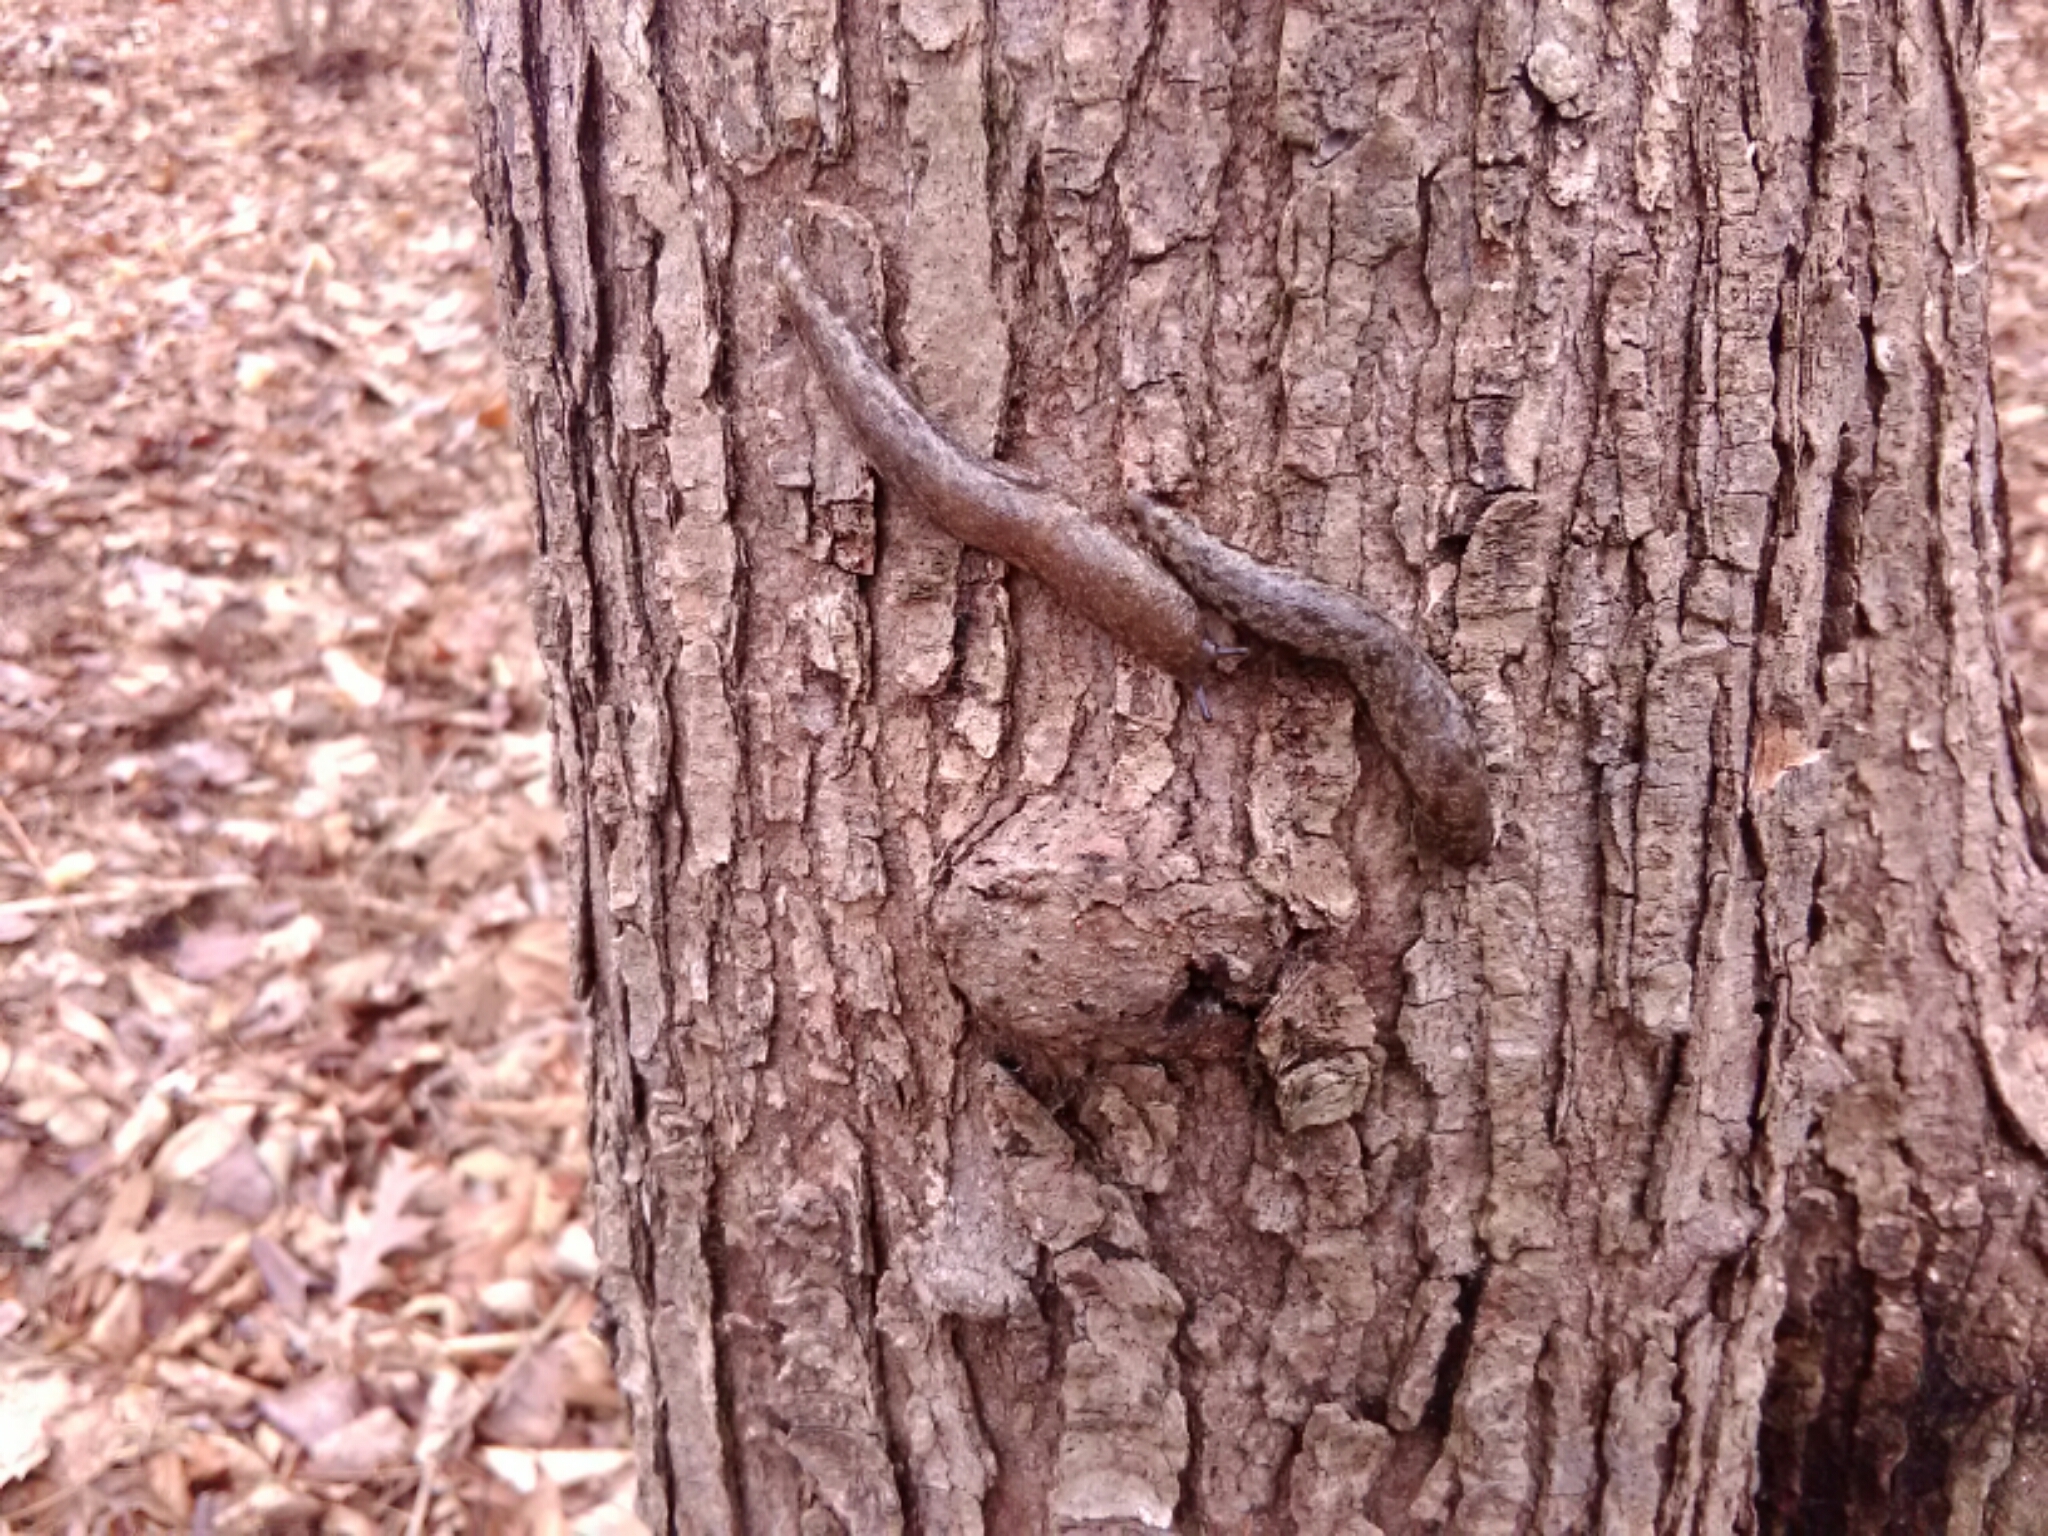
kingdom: Animalia
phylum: Mollusca
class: Gastropoda
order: Stylommatophora
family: Philomycidae
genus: Megapallifera
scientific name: Megapallifera mutabilis
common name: Changeable mantleslug
